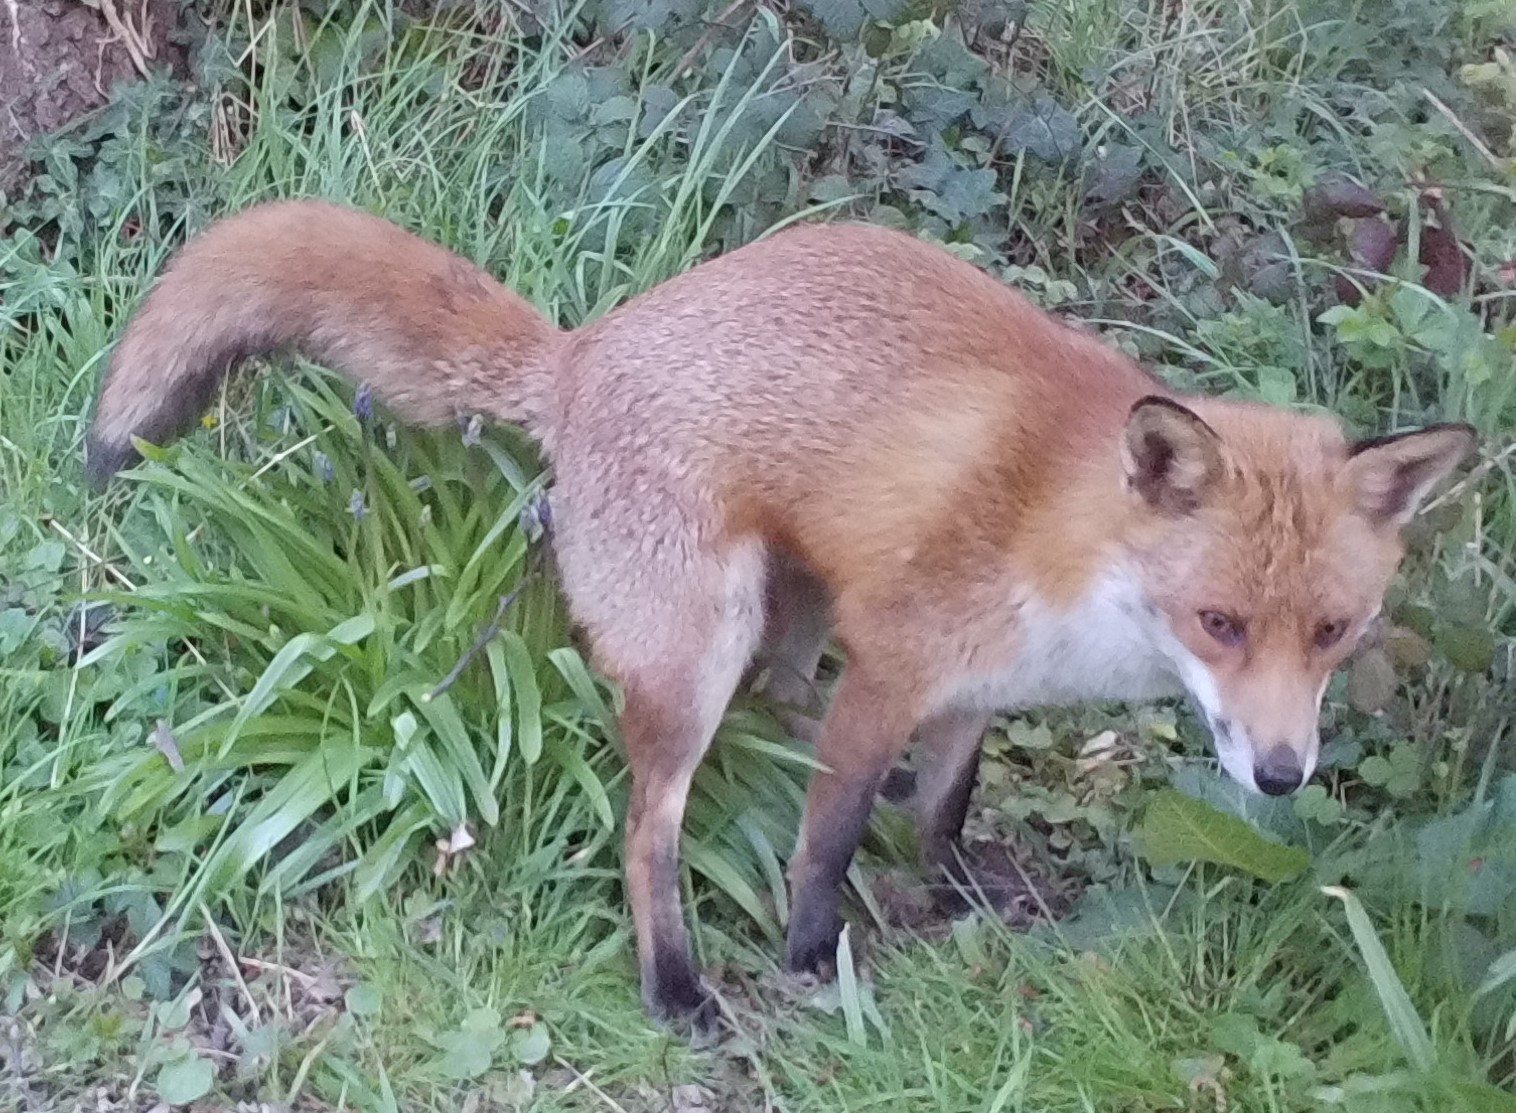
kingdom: Animalia
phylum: Chordata
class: Mammalia
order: Carnivora
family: Canidae
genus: Vulpes
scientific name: Vulpes vulpes
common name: Red fox
